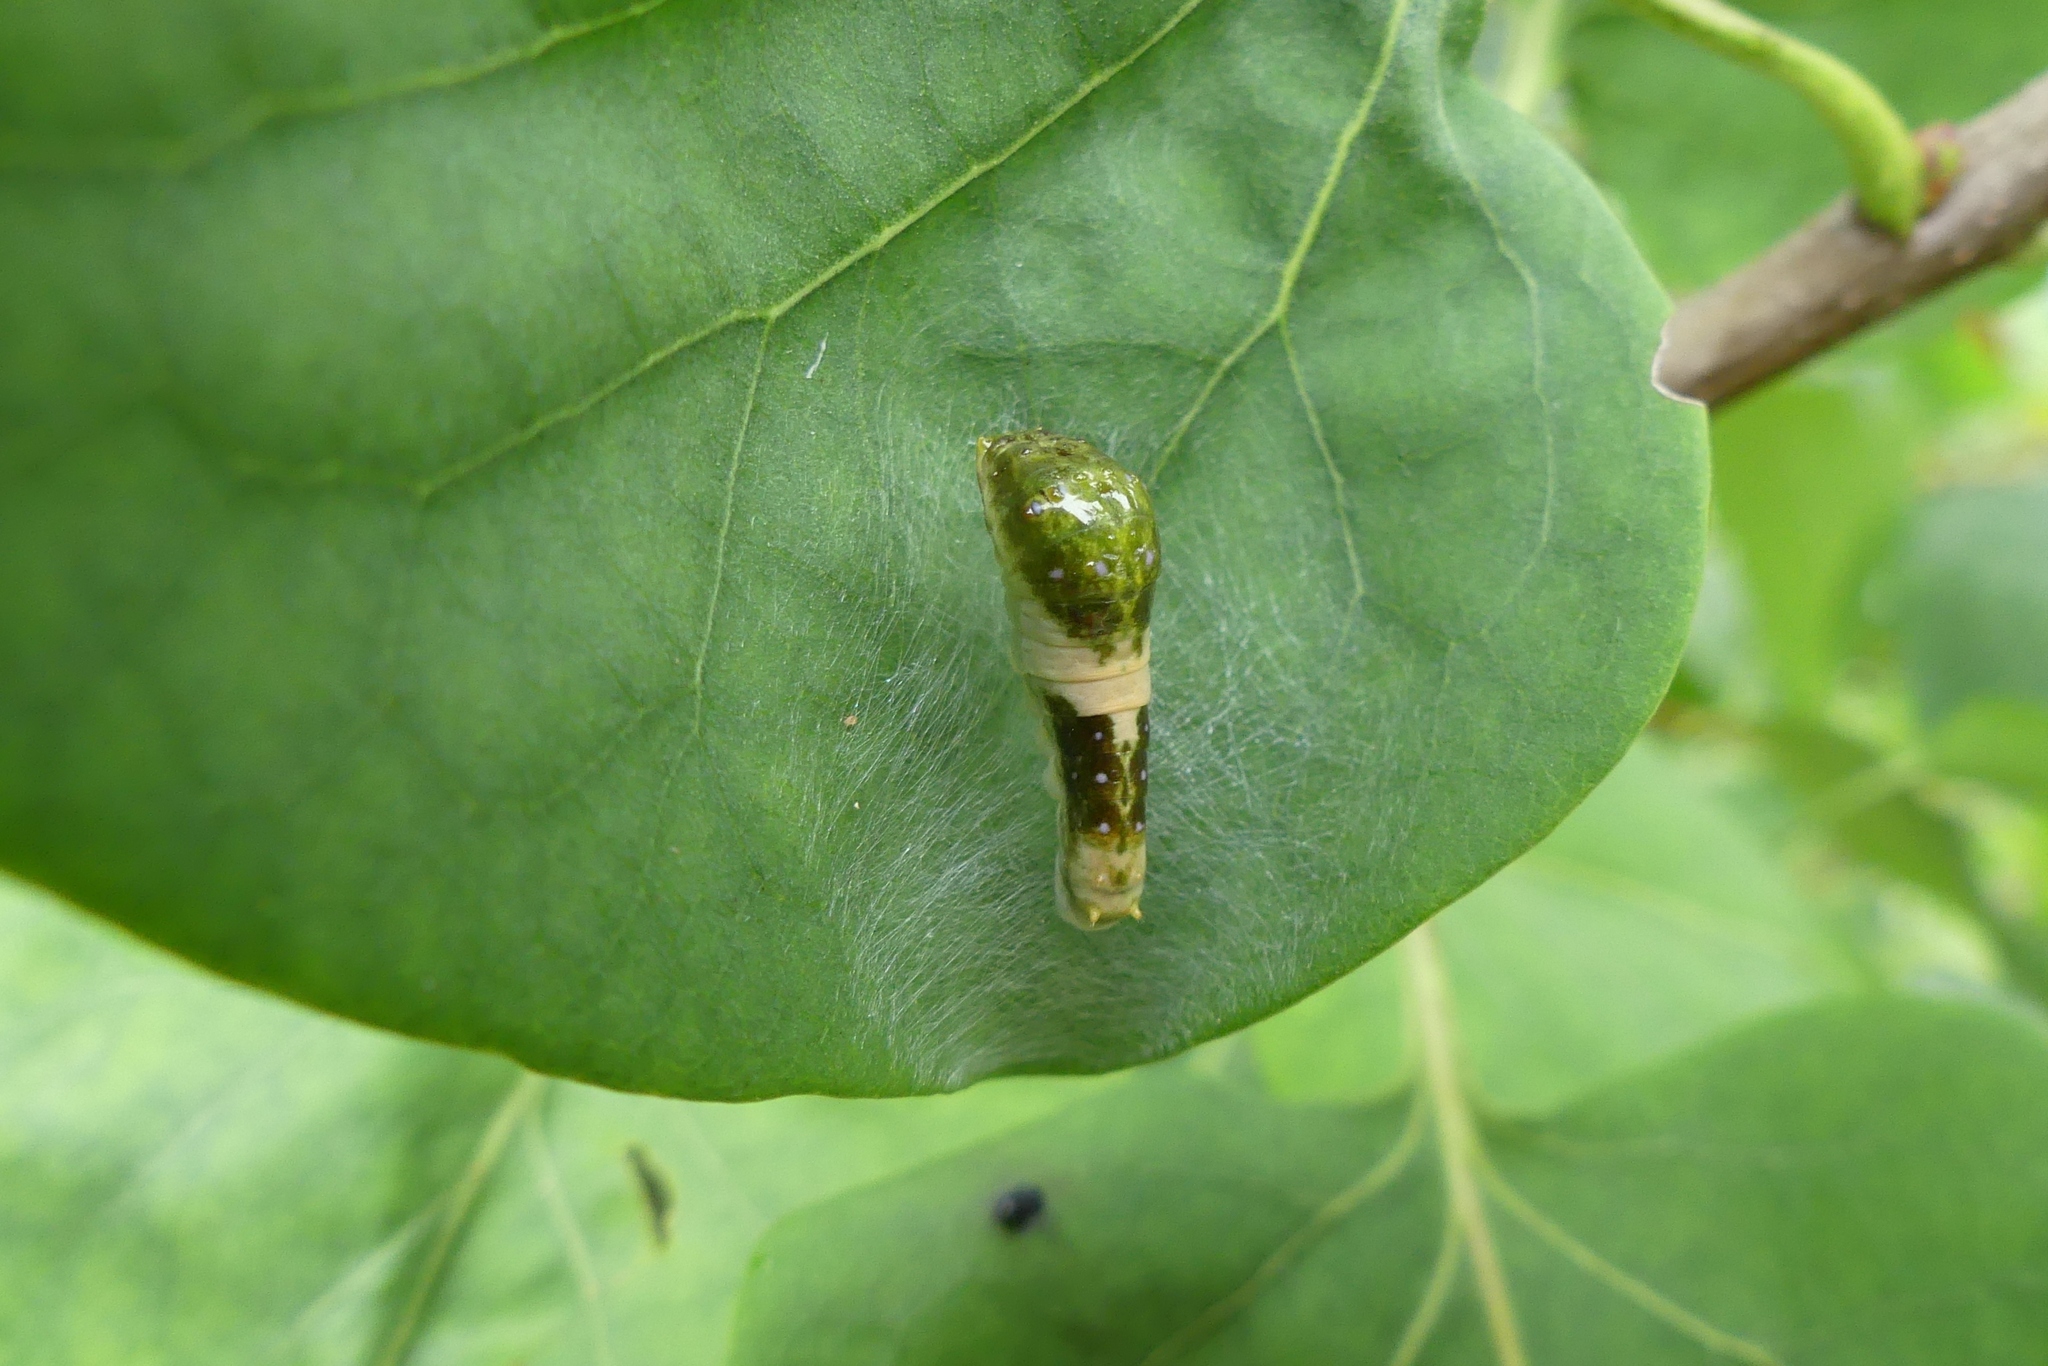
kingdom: Animalia
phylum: Arthropoda
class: Insecta
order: Lepidoptera
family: Papilionidae
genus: Papilio
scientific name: Papilio glaucus
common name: Tiger swallowtail
